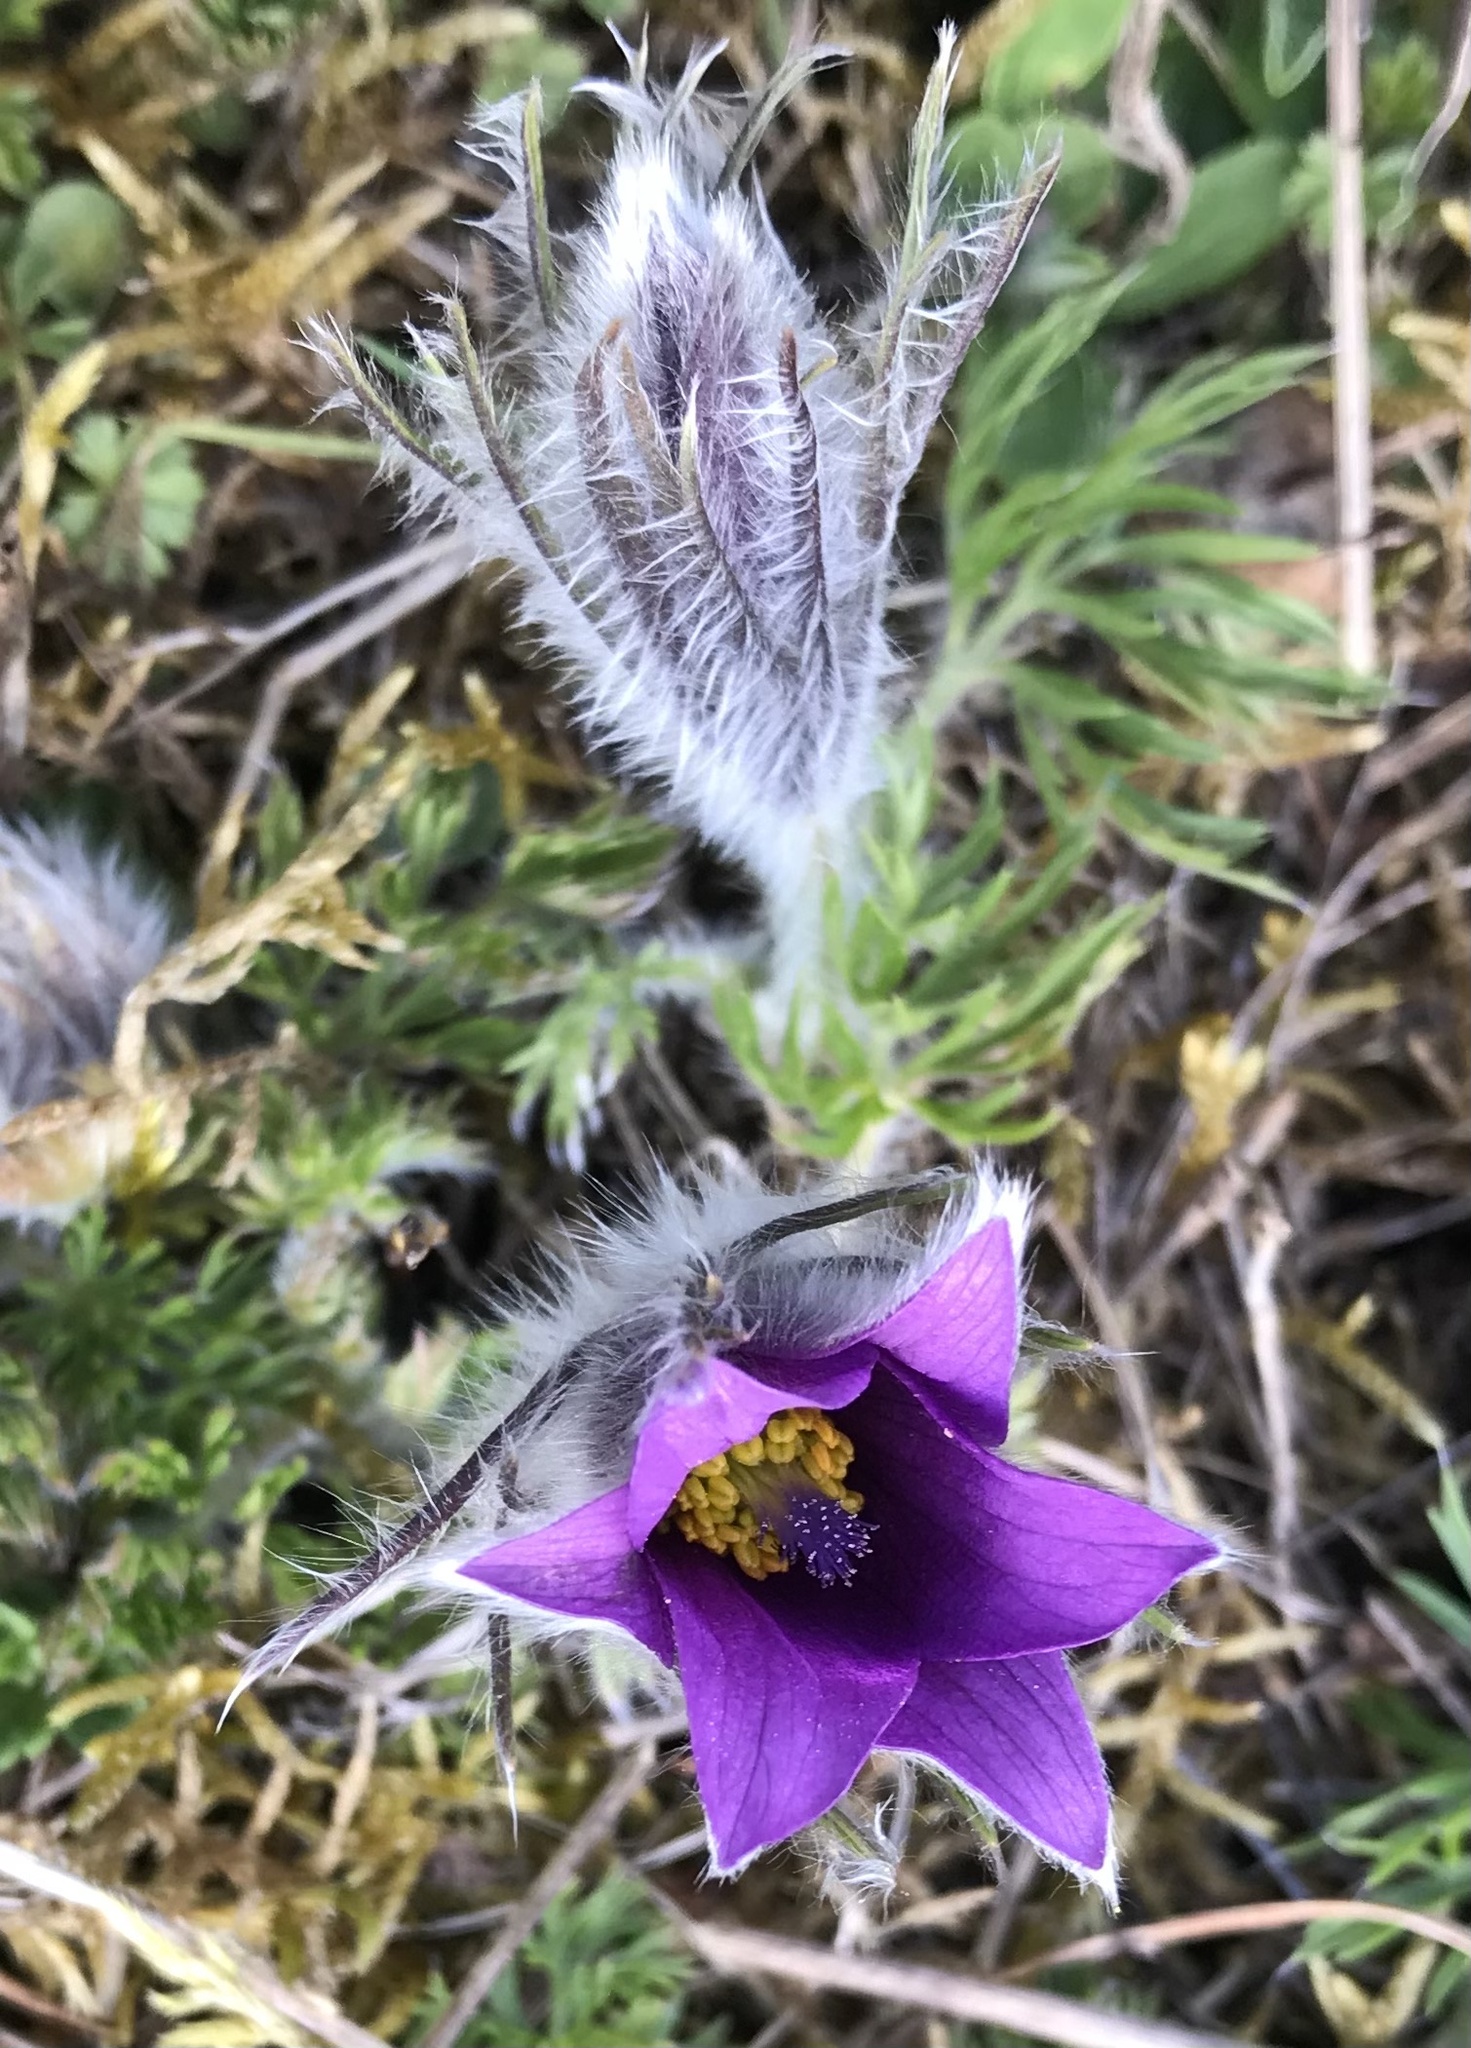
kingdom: Plantae
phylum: Tracheophyta
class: Magnoliopsida
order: Ranunculales
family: Ranunculaceae
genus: Pulsatilla
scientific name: Pulsatilla vulgaris
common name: Pasqueflower
